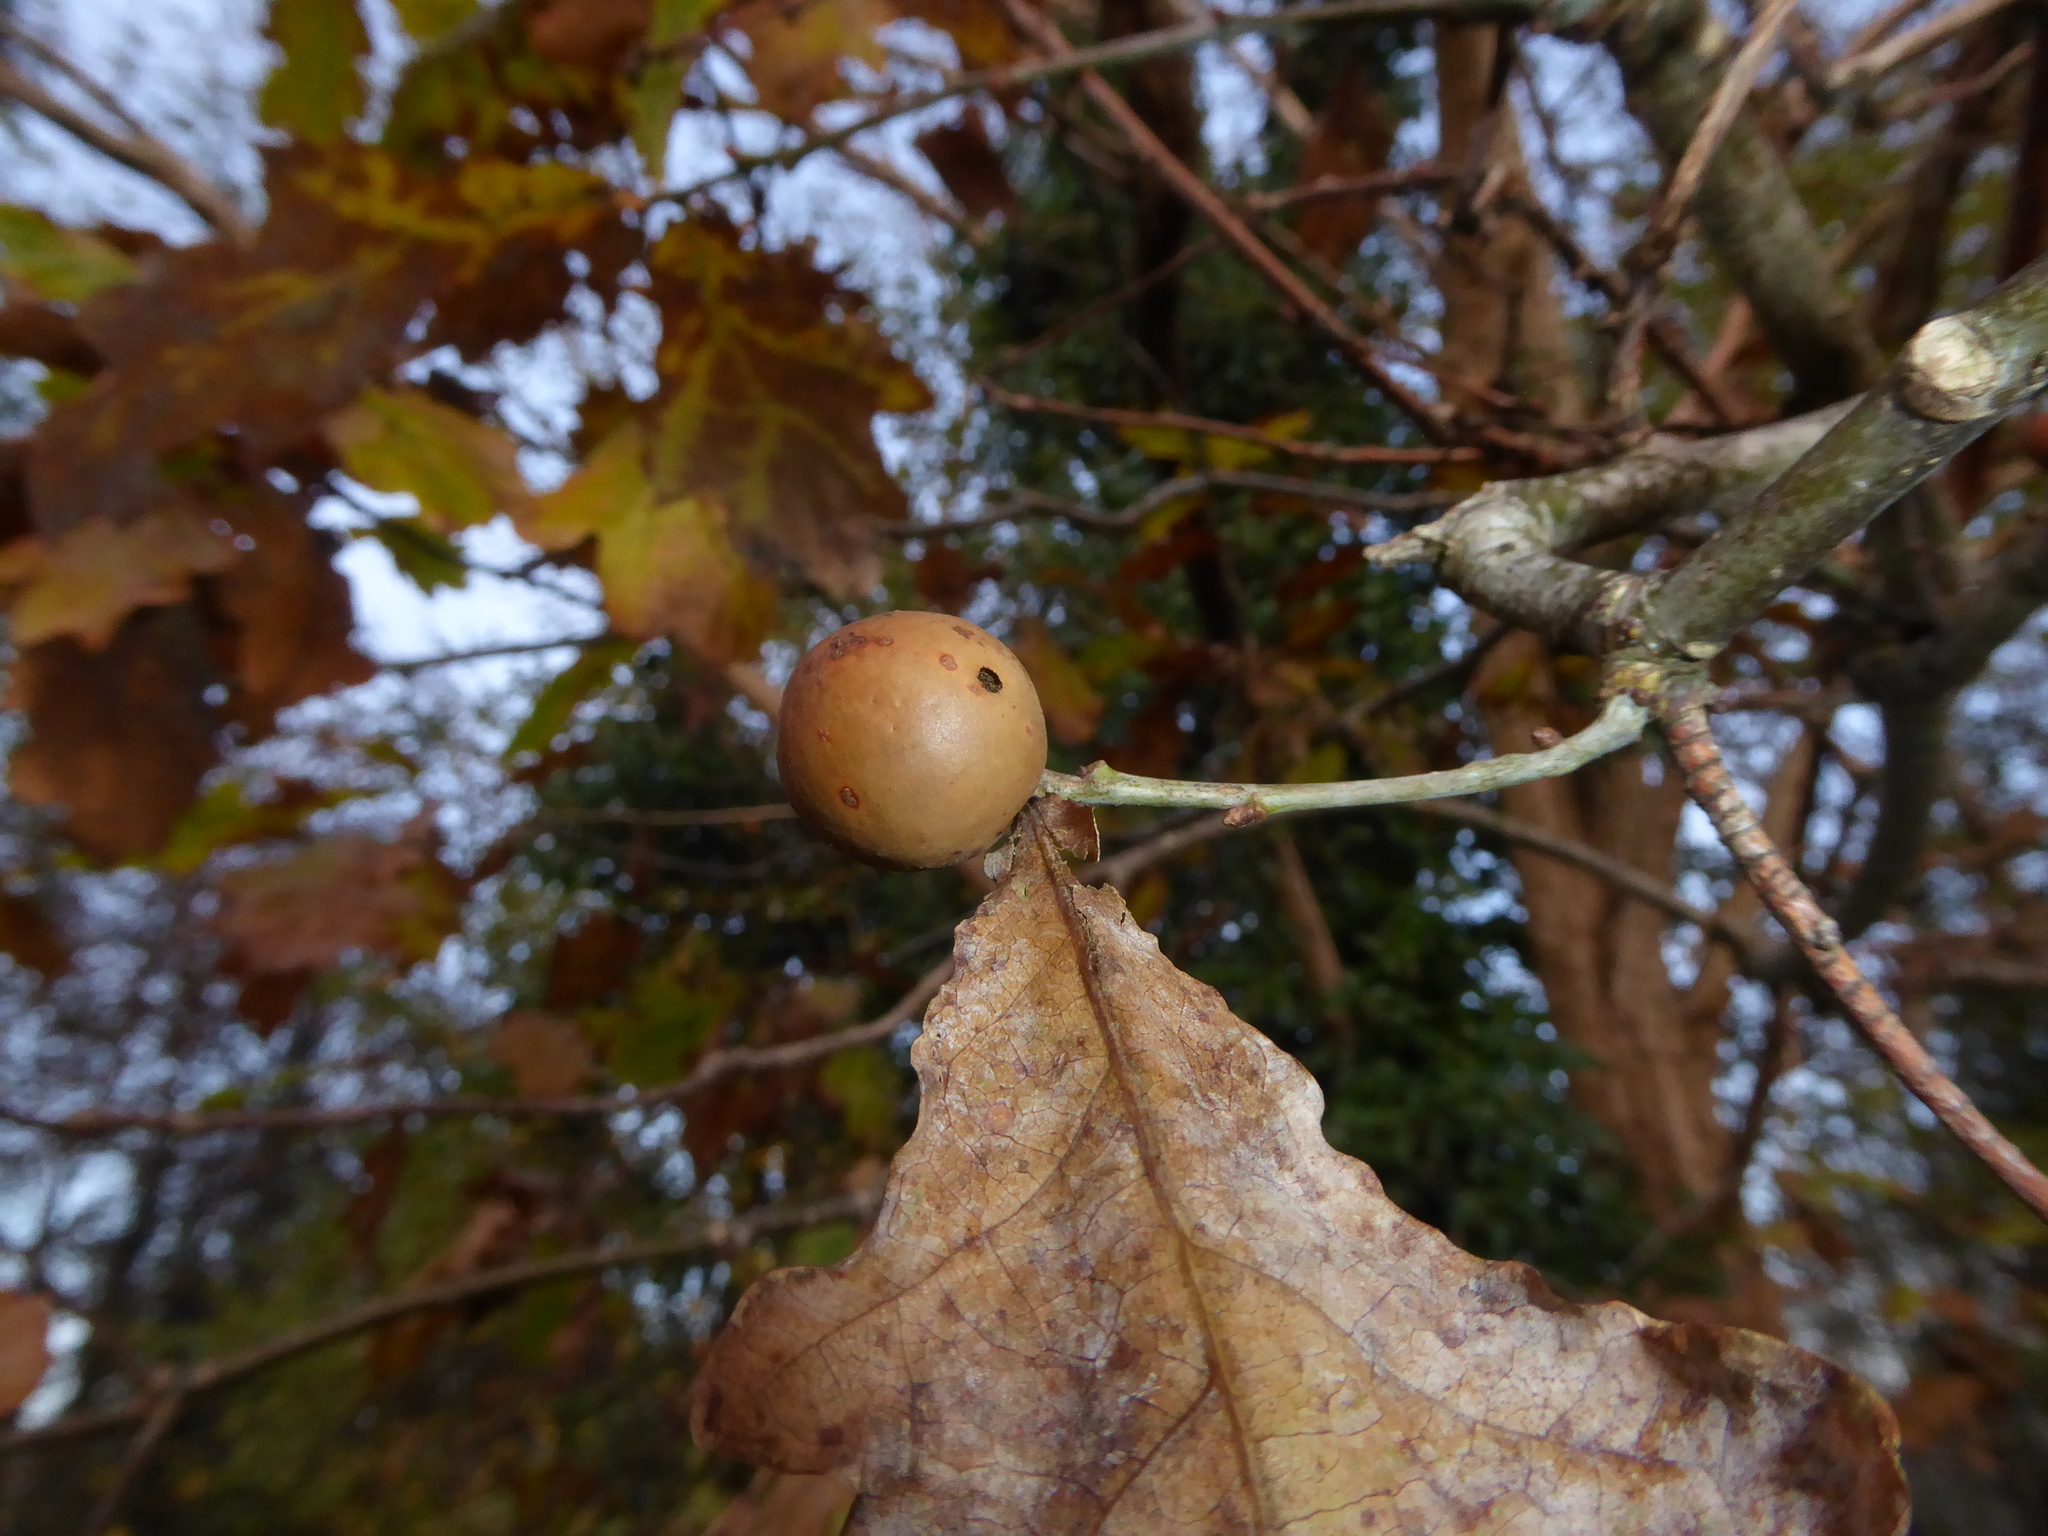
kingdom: Animalia
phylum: Arthropoda
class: Insecta
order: Hymenoptera
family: Cynipidae
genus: Andricus
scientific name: Andricus kollari
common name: Marble gall
